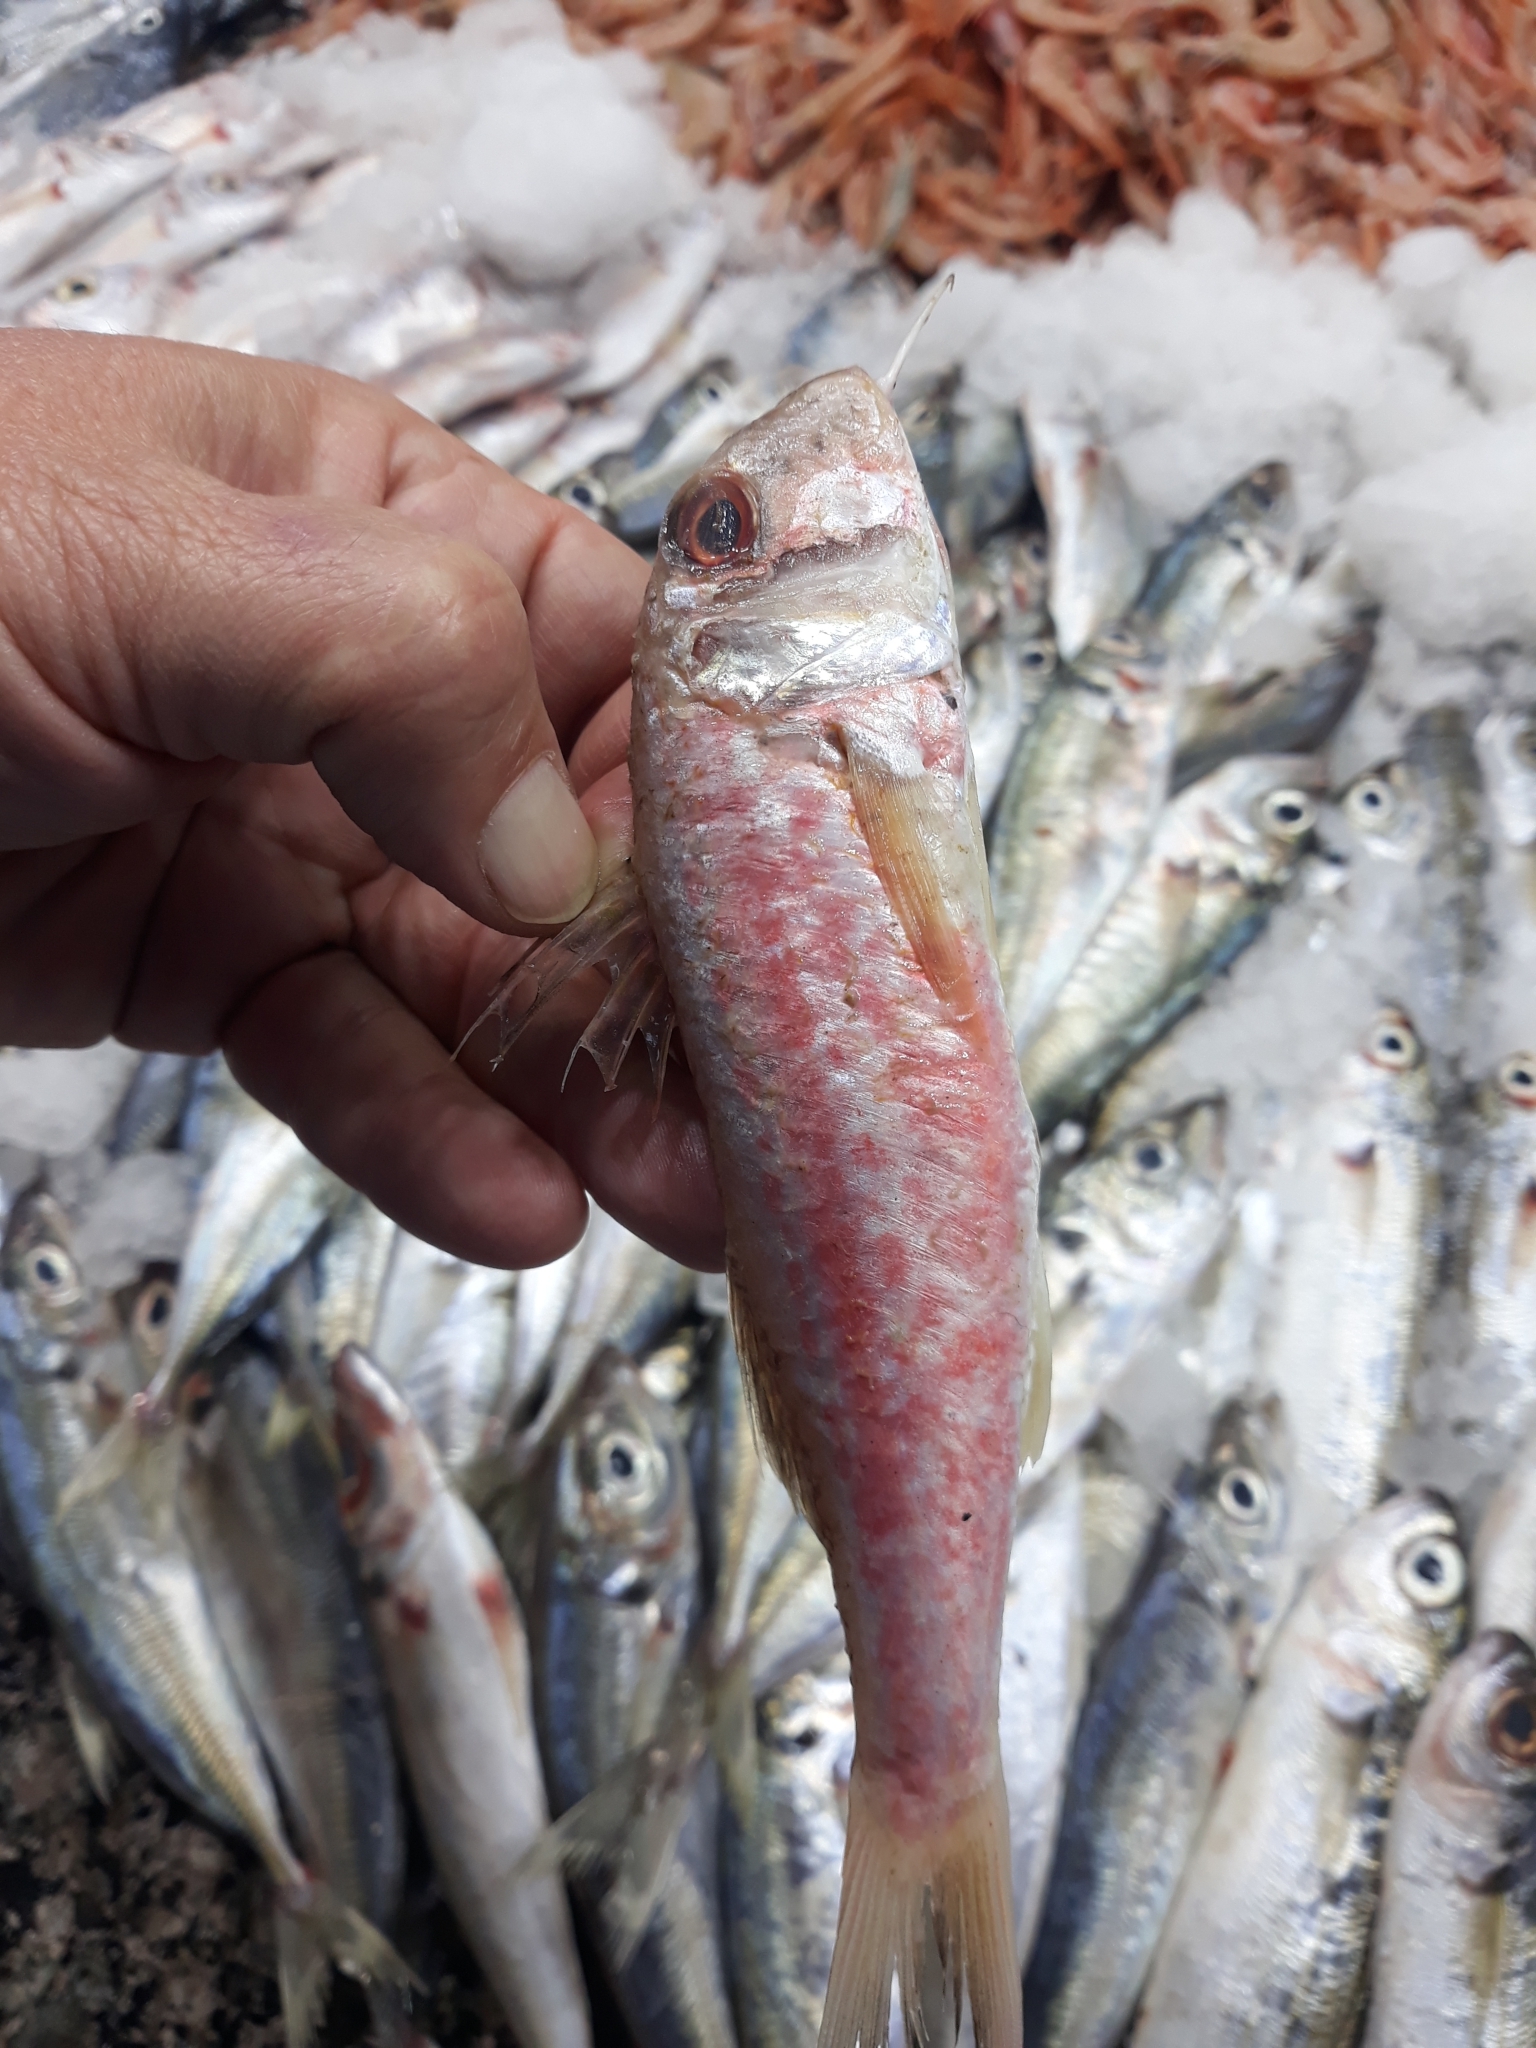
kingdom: Animalia
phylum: Chordata
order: Perciformes
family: Mullidae
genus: Mullus
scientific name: Mullus barbatus
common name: Blunt-snouted mullet
